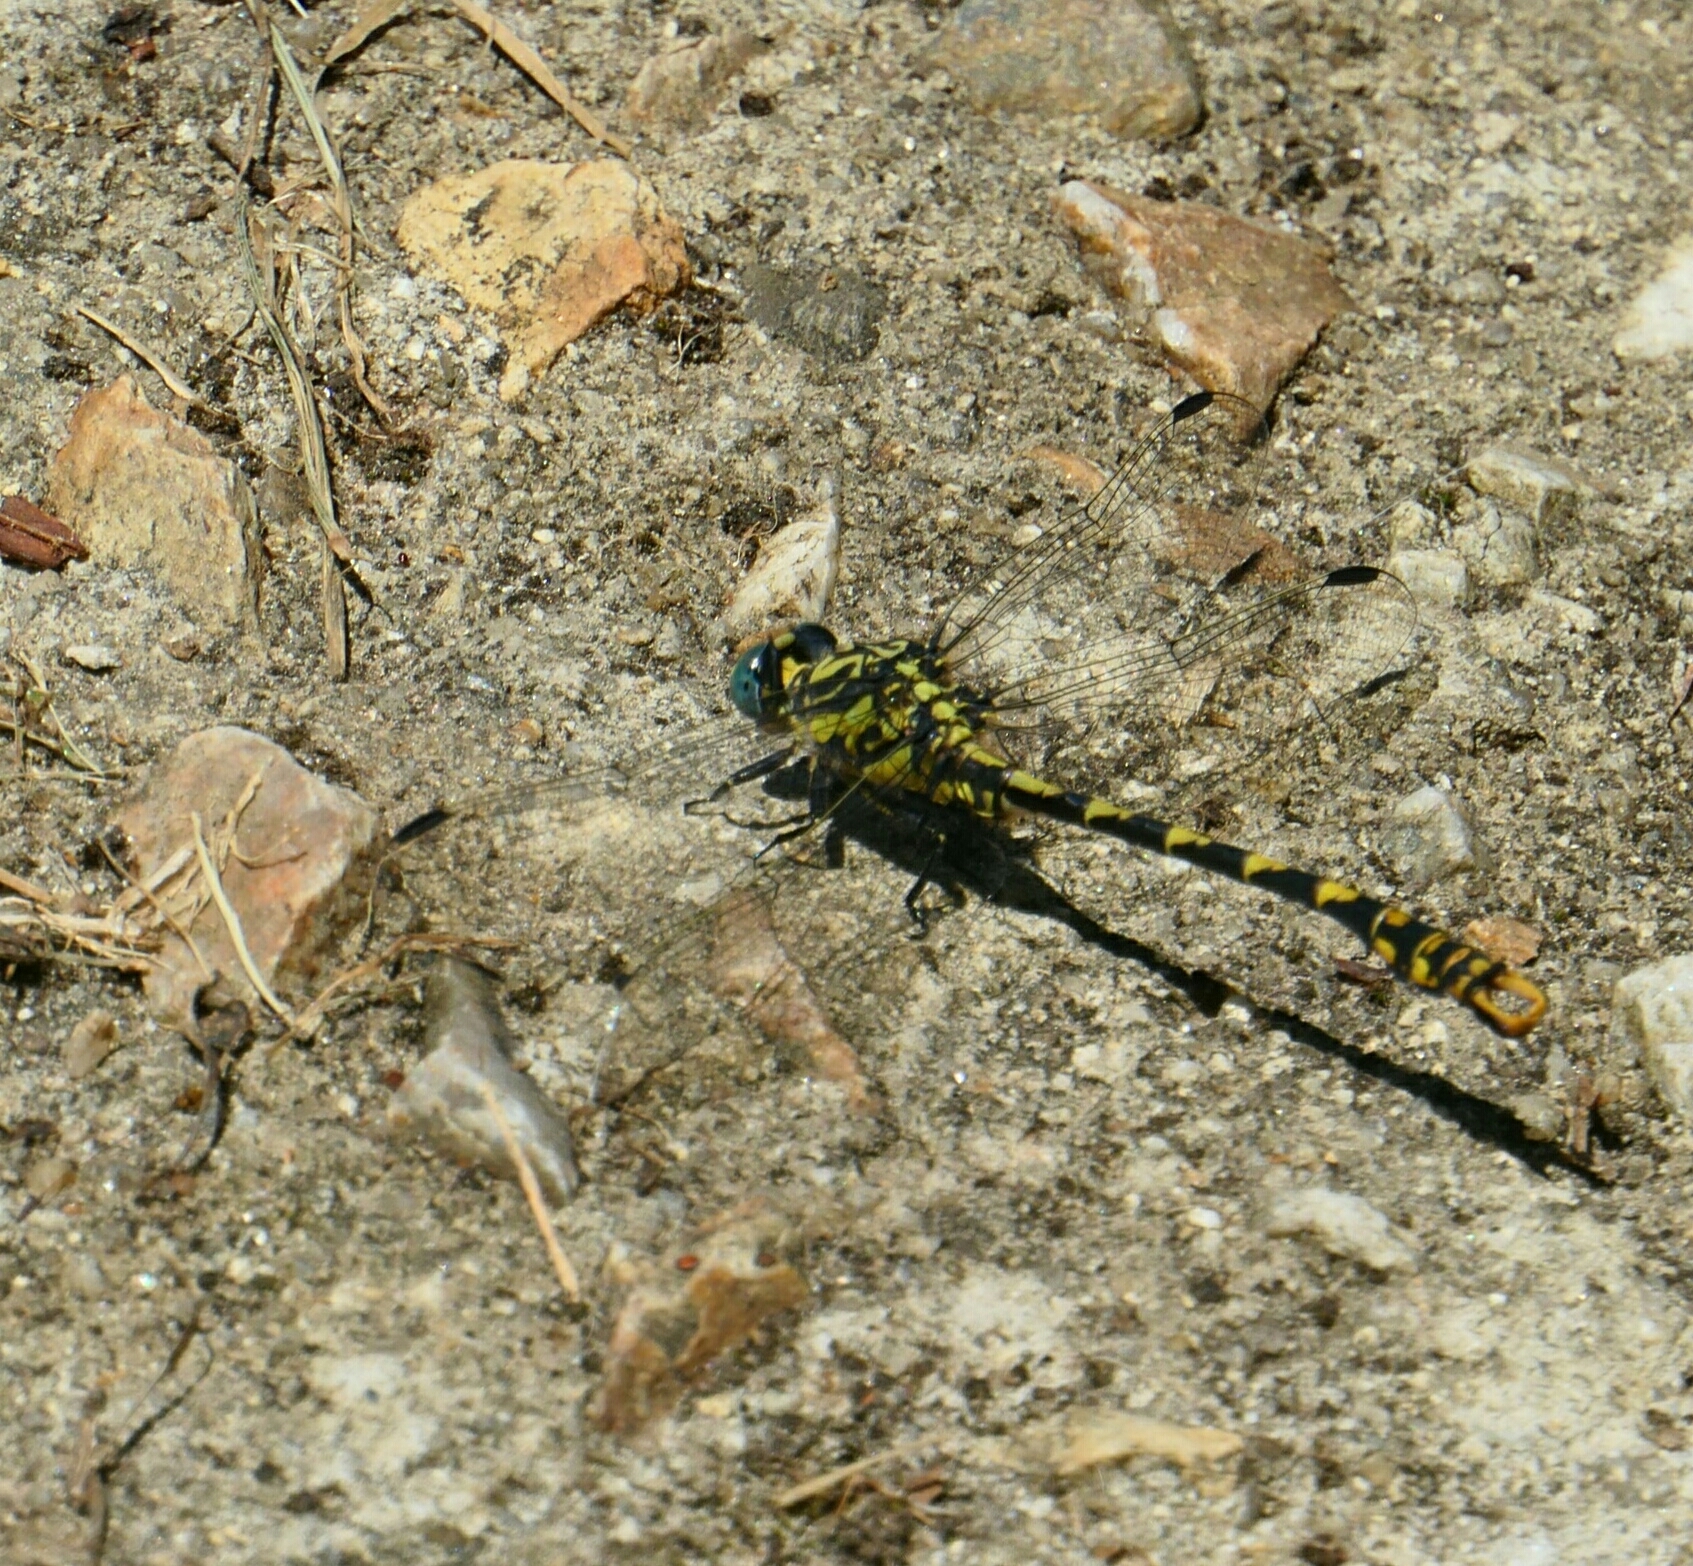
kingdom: Animalia
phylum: Arthropoda
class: Insecta
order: Odonata
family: Gomphidae
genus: Onychogomphus
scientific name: Onychogomphus uncatus
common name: Large pincertail
